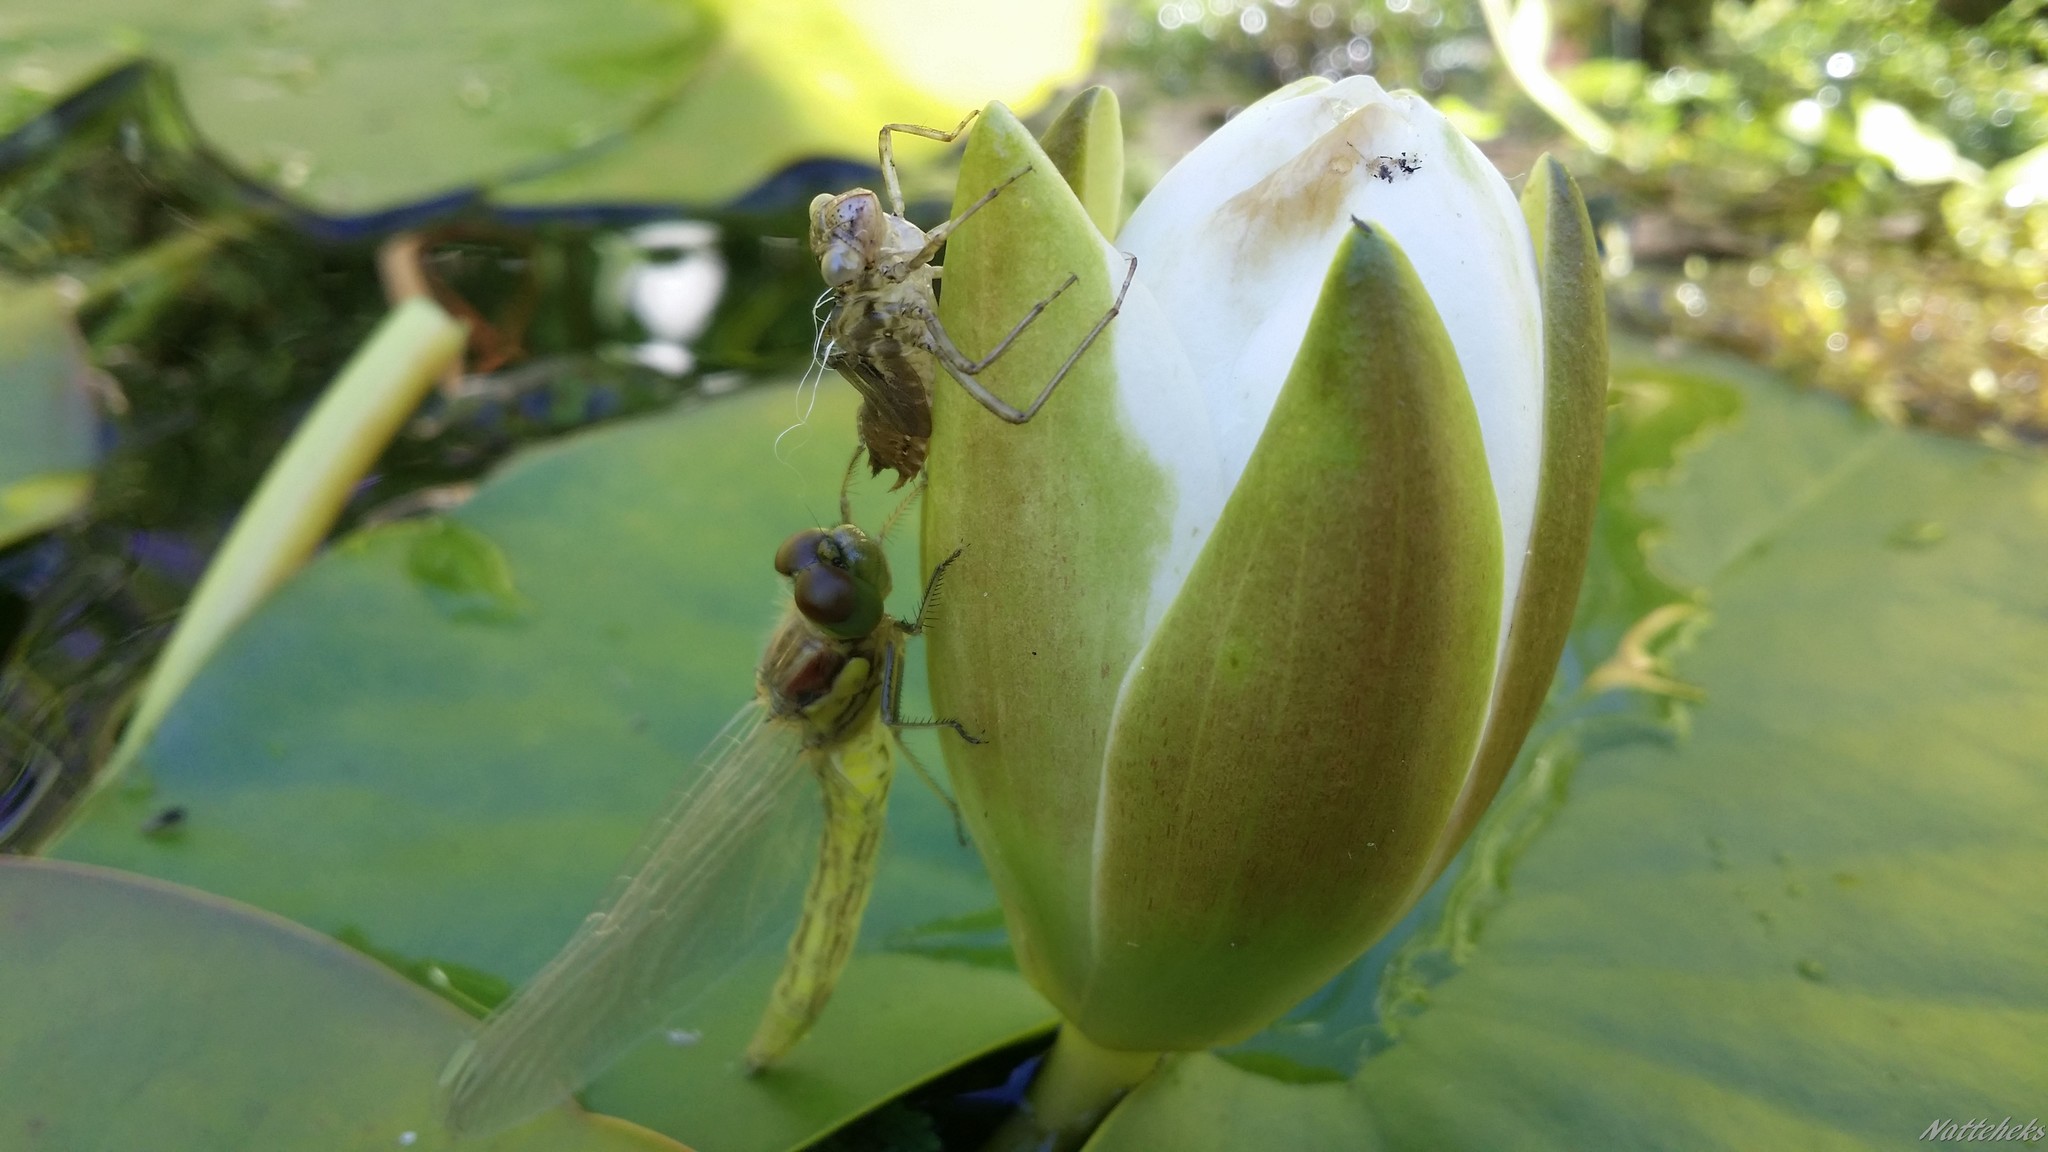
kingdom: Animalia
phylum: Arthropoda
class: Insecta
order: Odonata
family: Libellulidae
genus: Sympetrum
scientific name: Sympetrum striolatum
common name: Common darter
